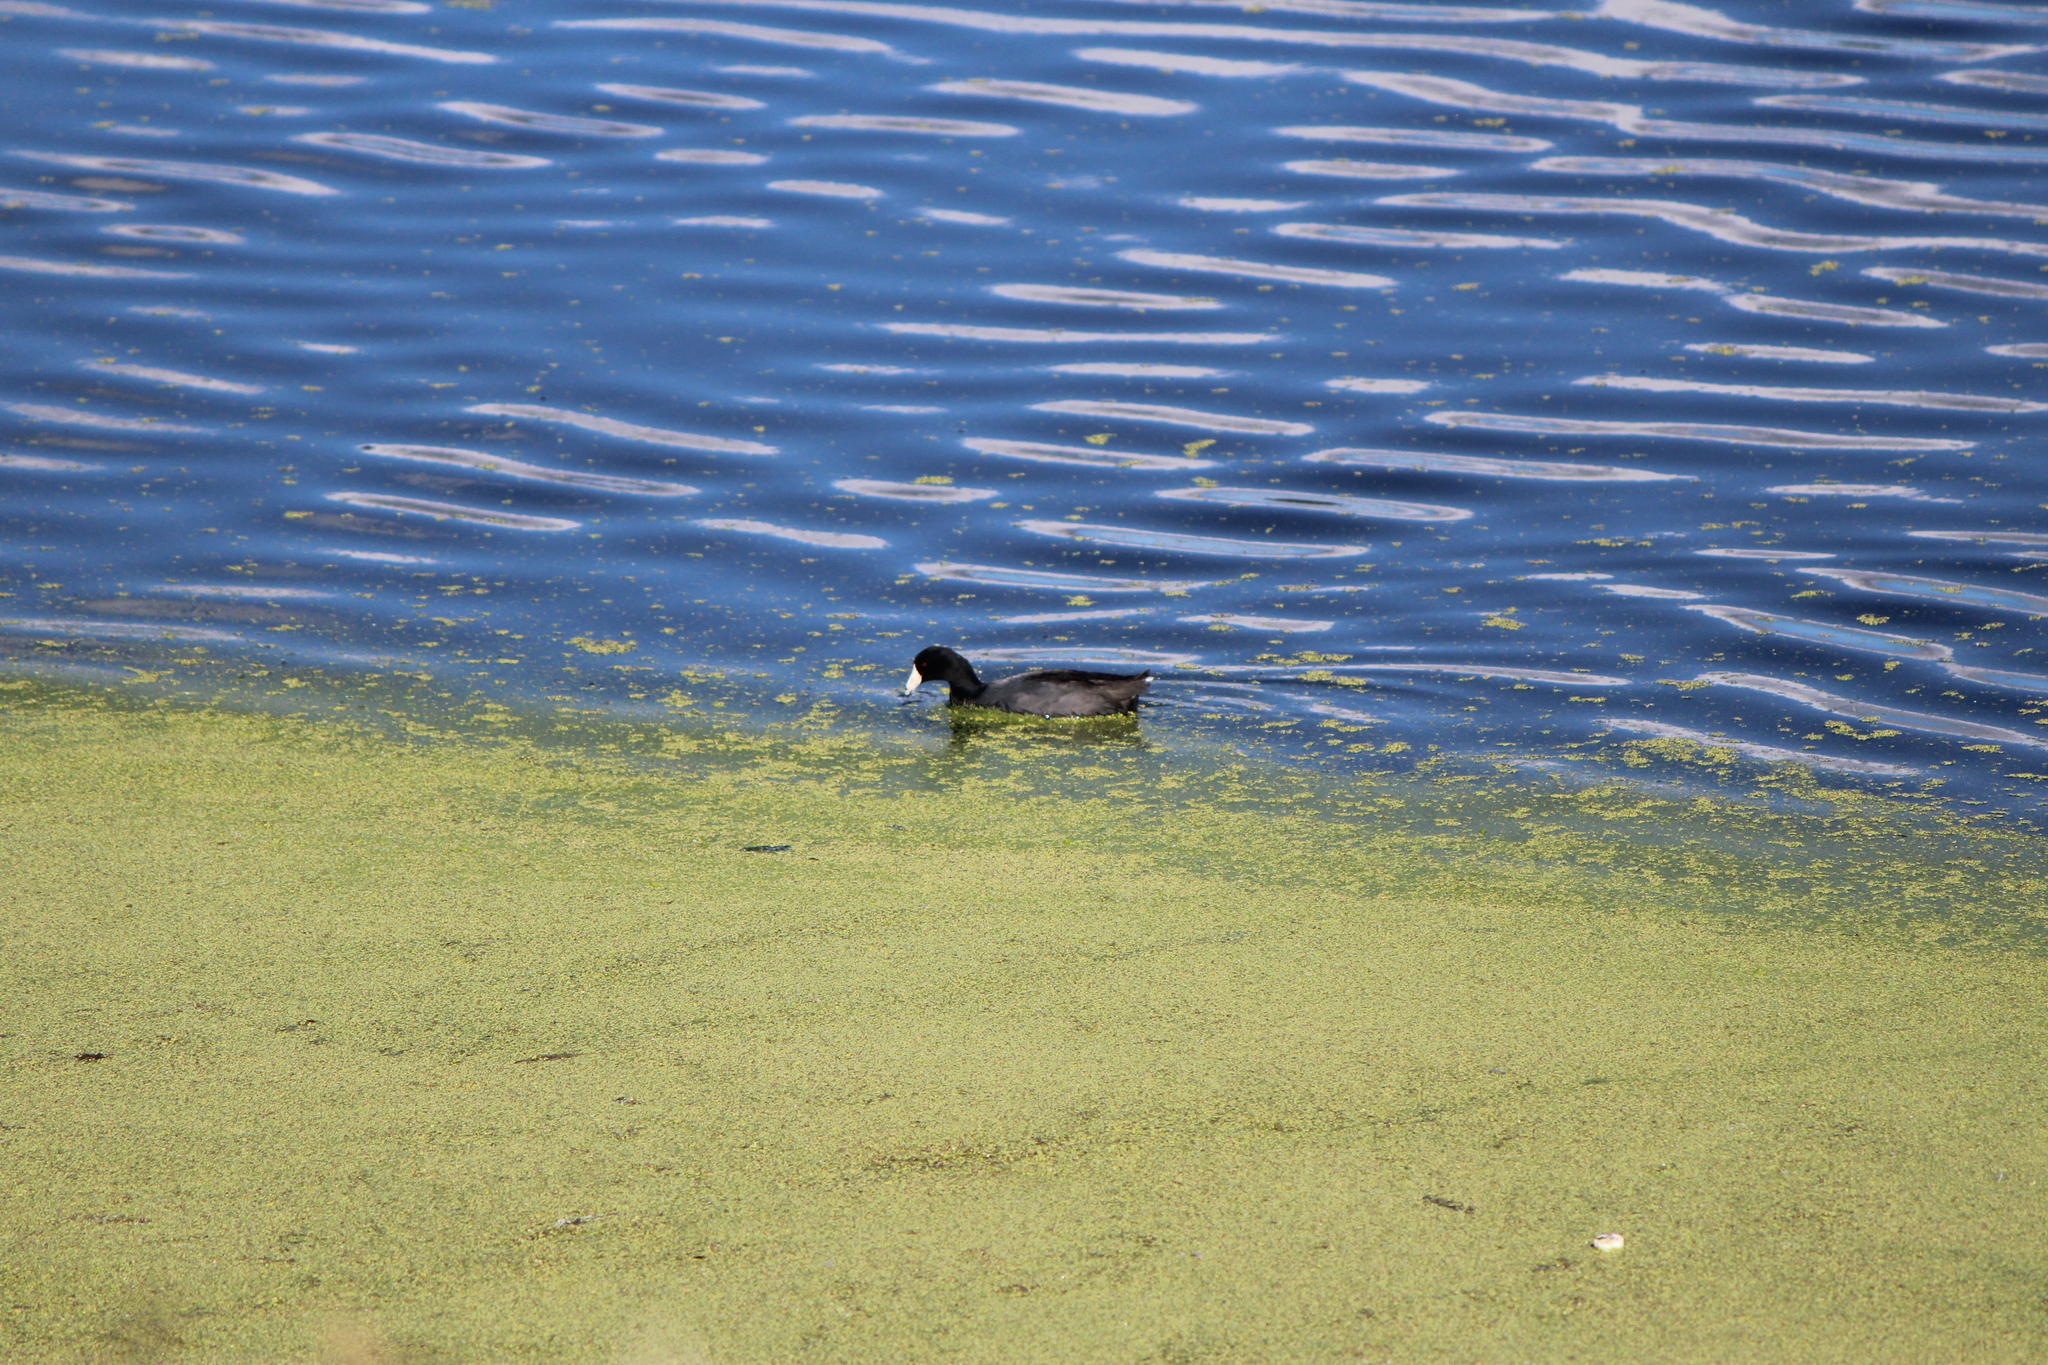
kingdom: Animalia
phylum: Chordata
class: Aves
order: Gruiformes
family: Rallidae
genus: Fulica
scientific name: Fulica americana
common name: American coot
